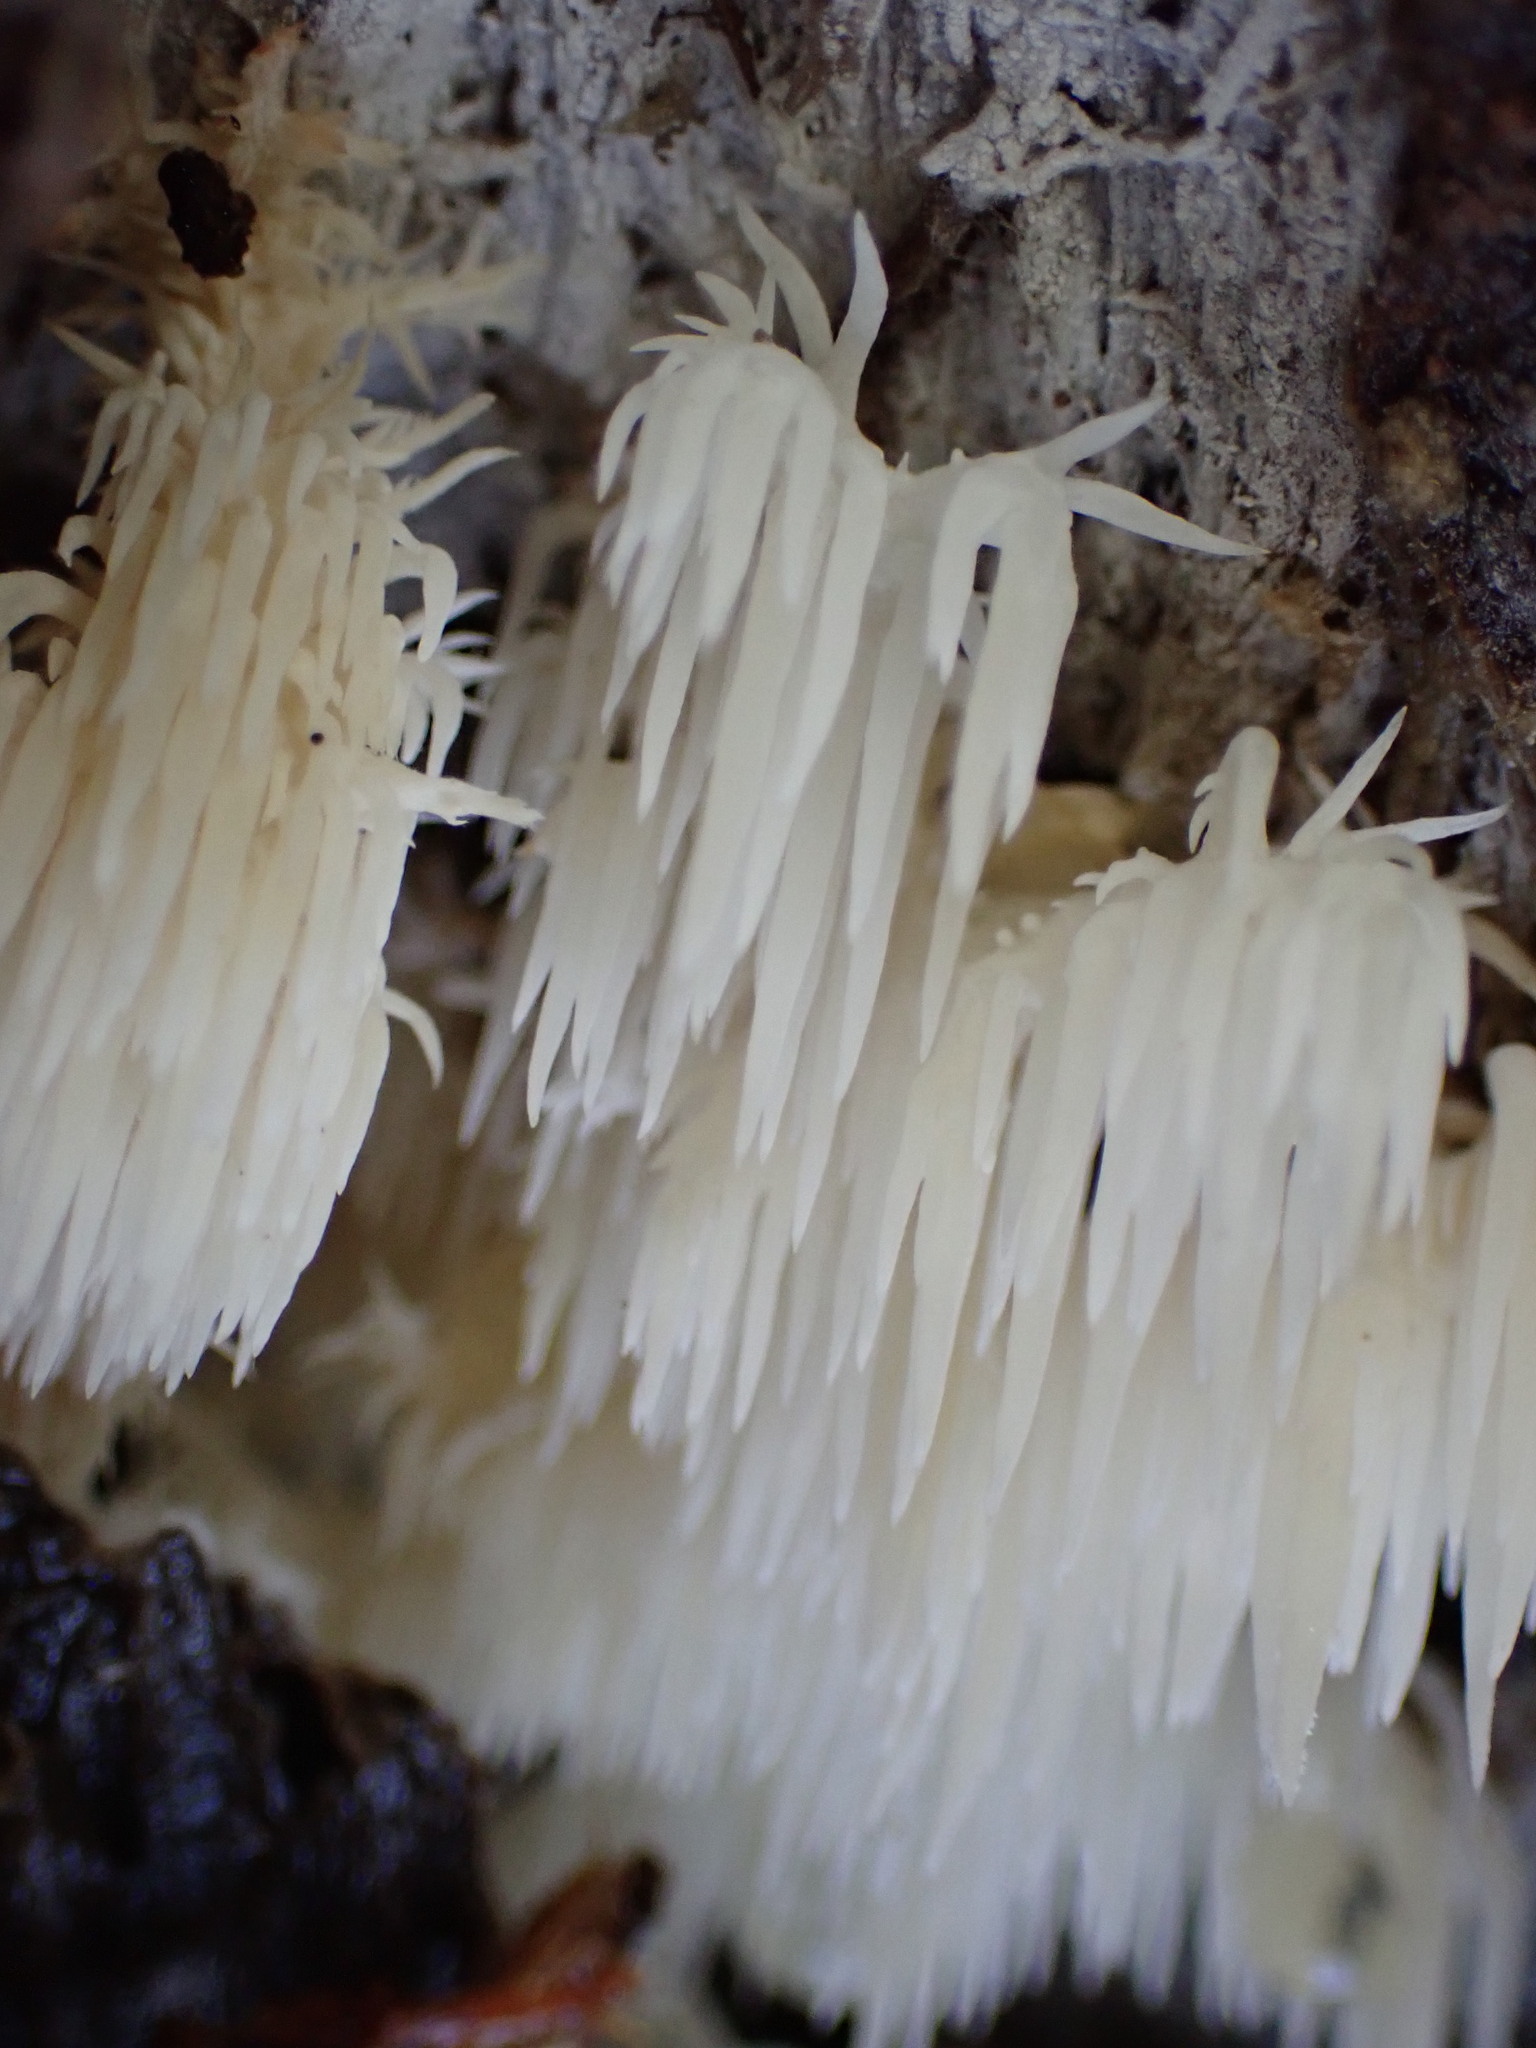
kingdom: Fungi
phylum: Basidiomycota
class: Agaricomycetes
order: Russulales
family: Hericiaceae
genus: Hericium
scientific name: Hericium coralloides
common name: Coral tooth
